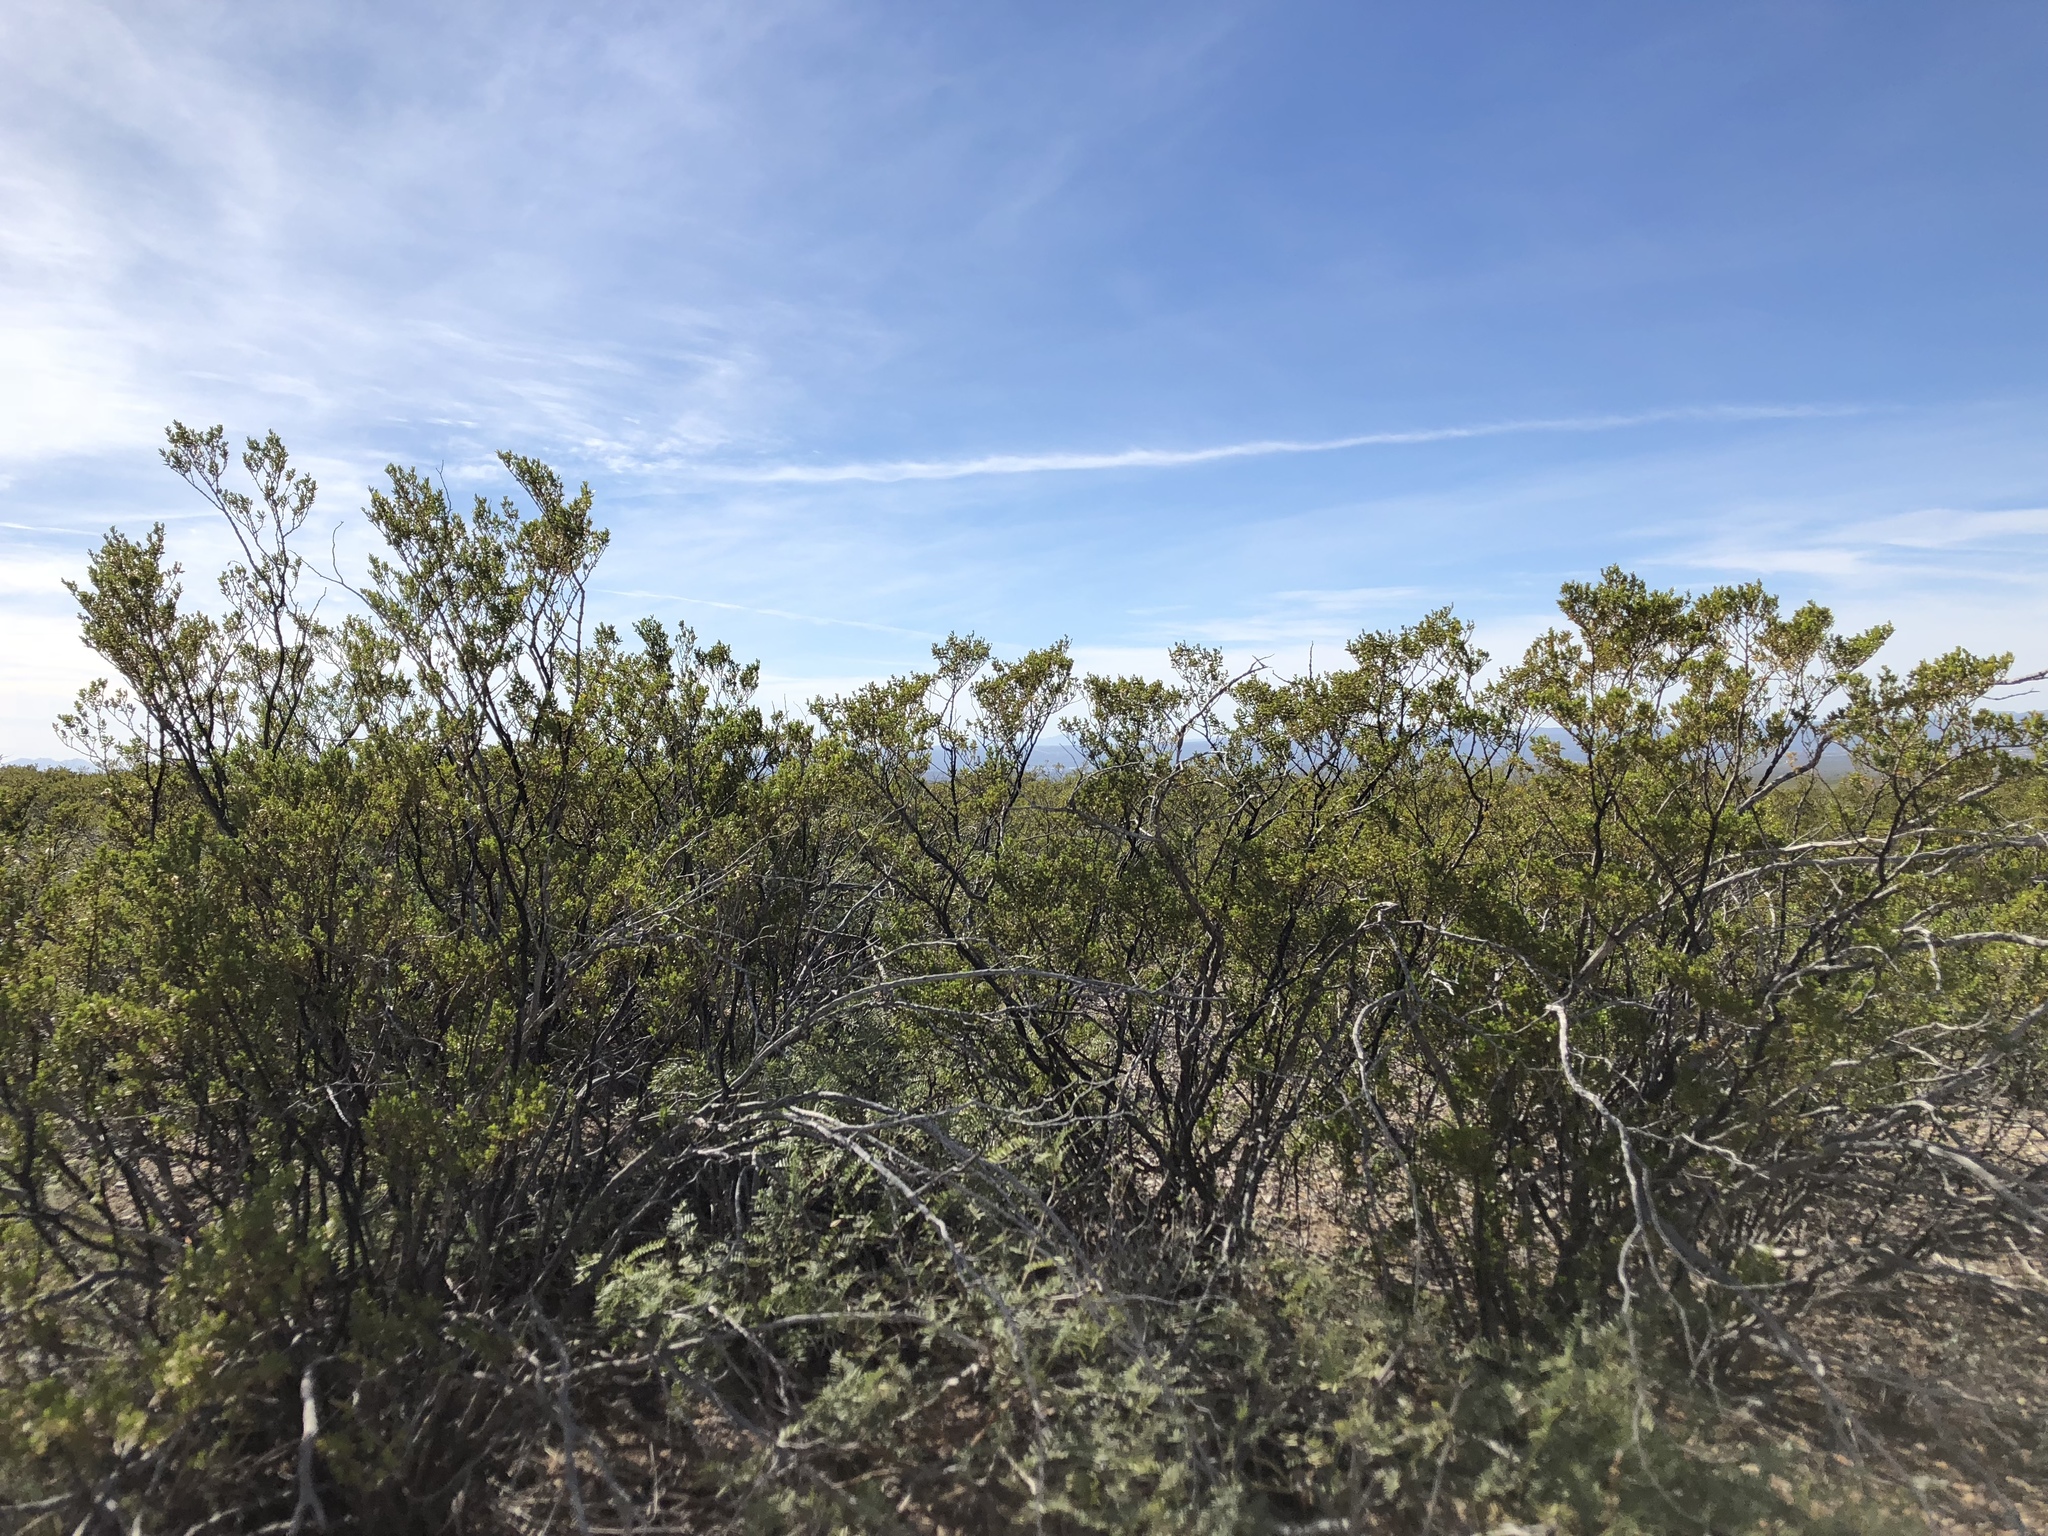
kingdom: Plantae
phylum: Tracheophyta
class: Magnoliopsida
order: Zygophyllales
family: Zygophyllaceae
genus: Larrea
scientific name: Larrea tridentata
